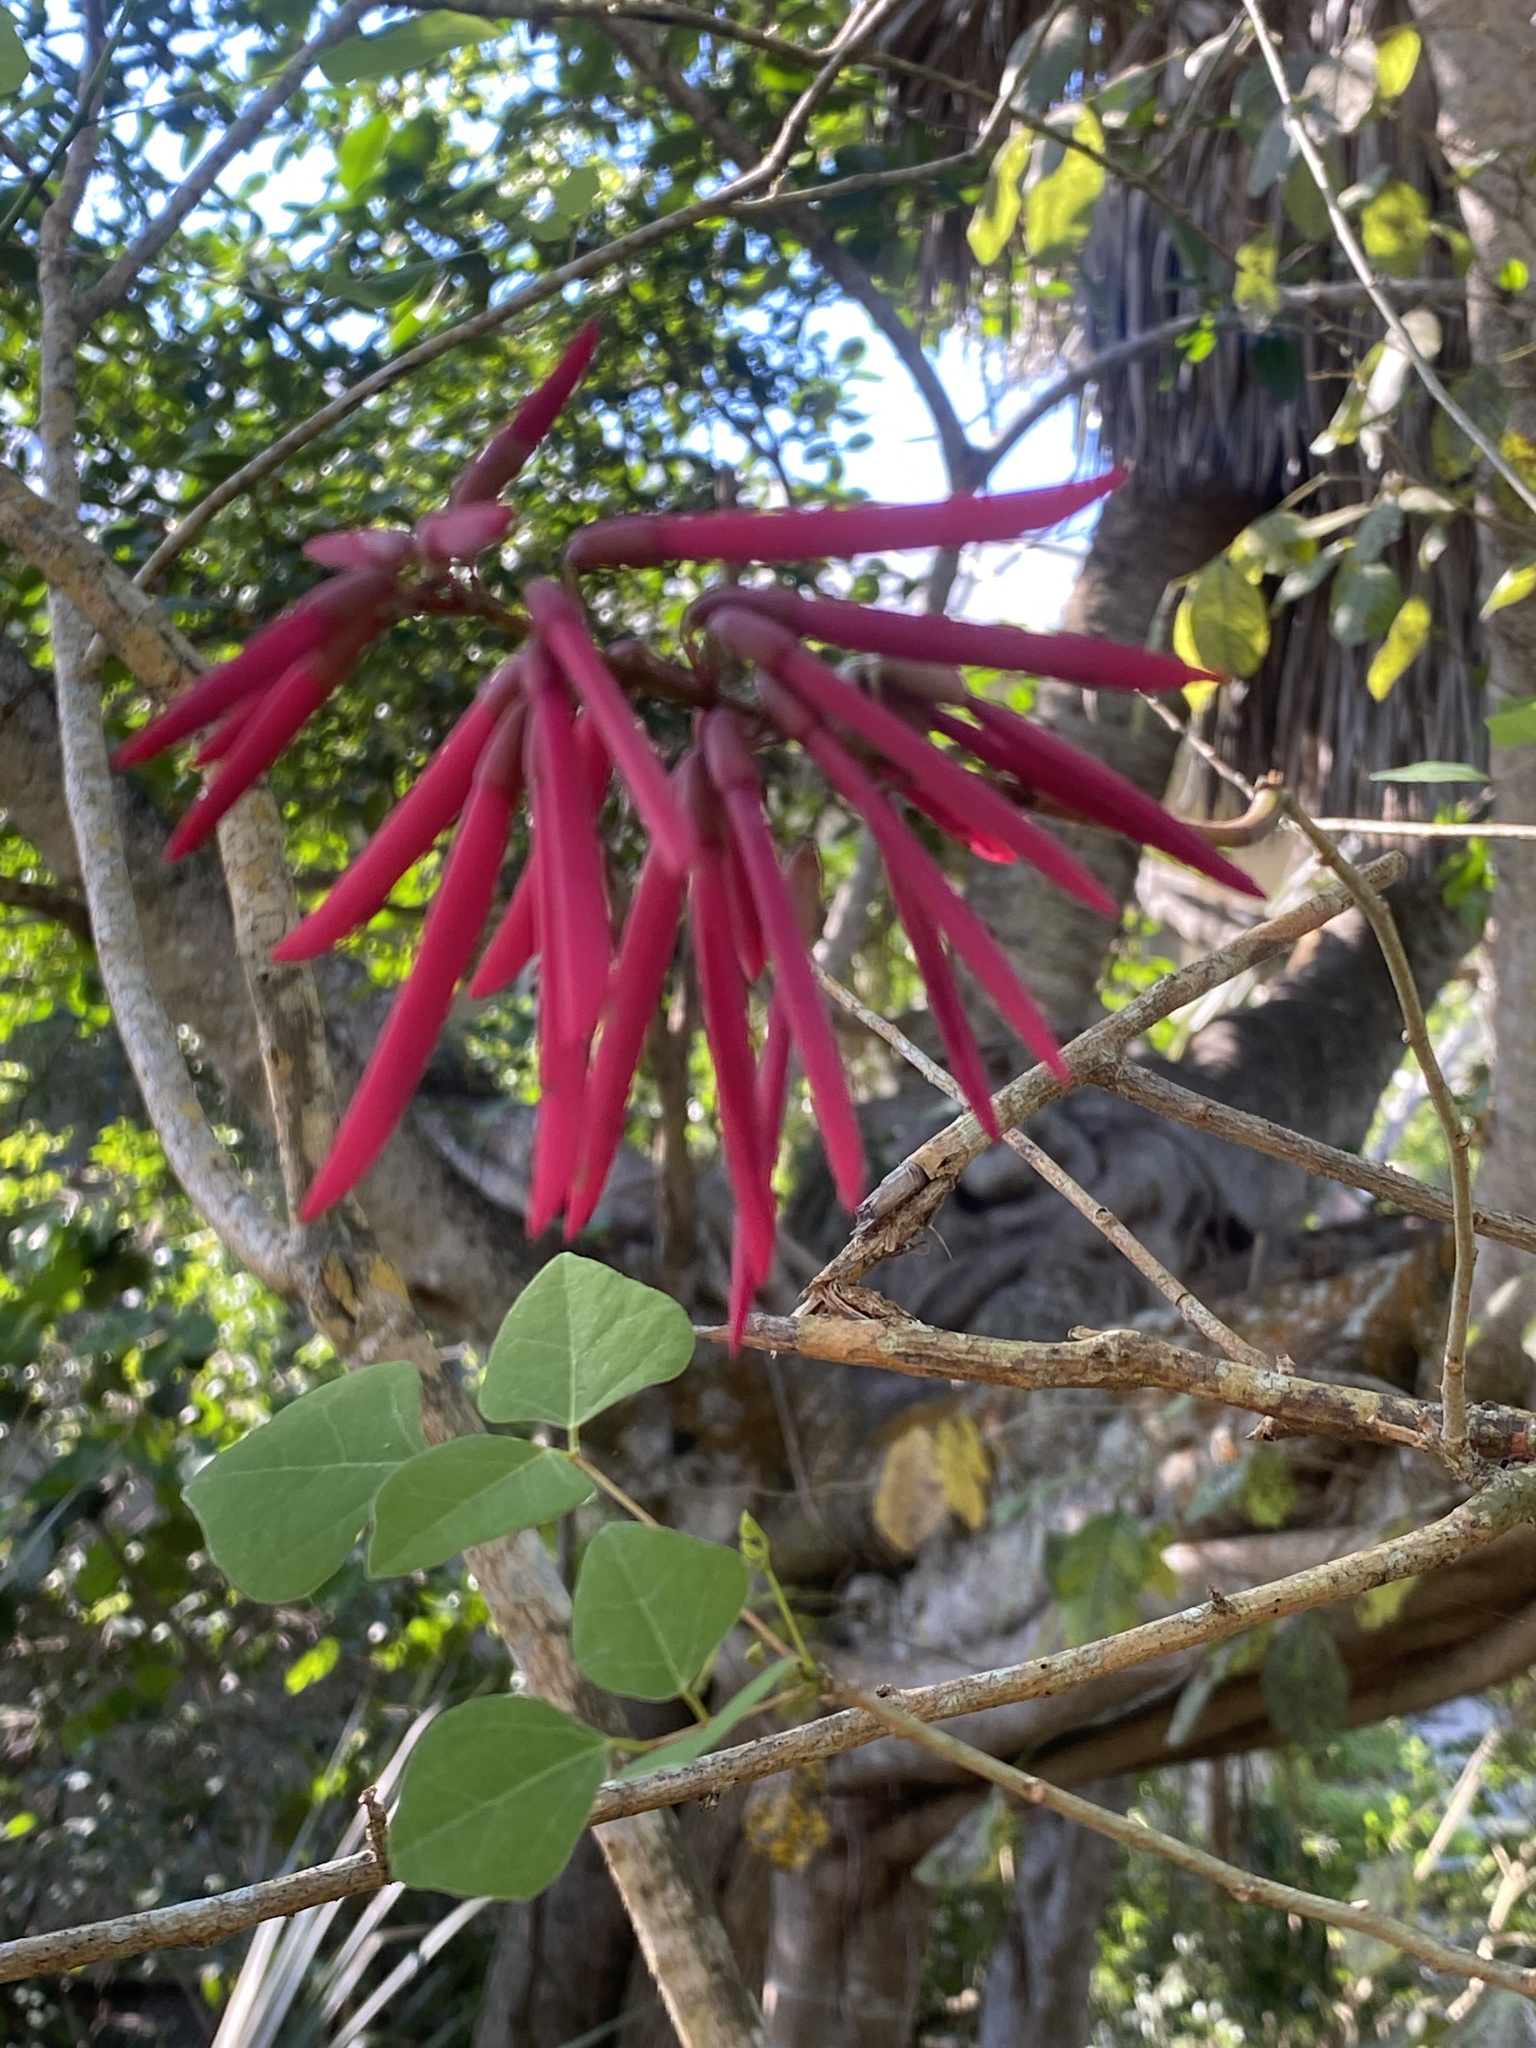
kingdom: Plantae
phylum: Tracheophyta
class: Magnoliopsida
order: Fabales
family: Fabaceae
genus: Erythrina
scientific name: Erythrina herbacea
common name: Coral-bean
